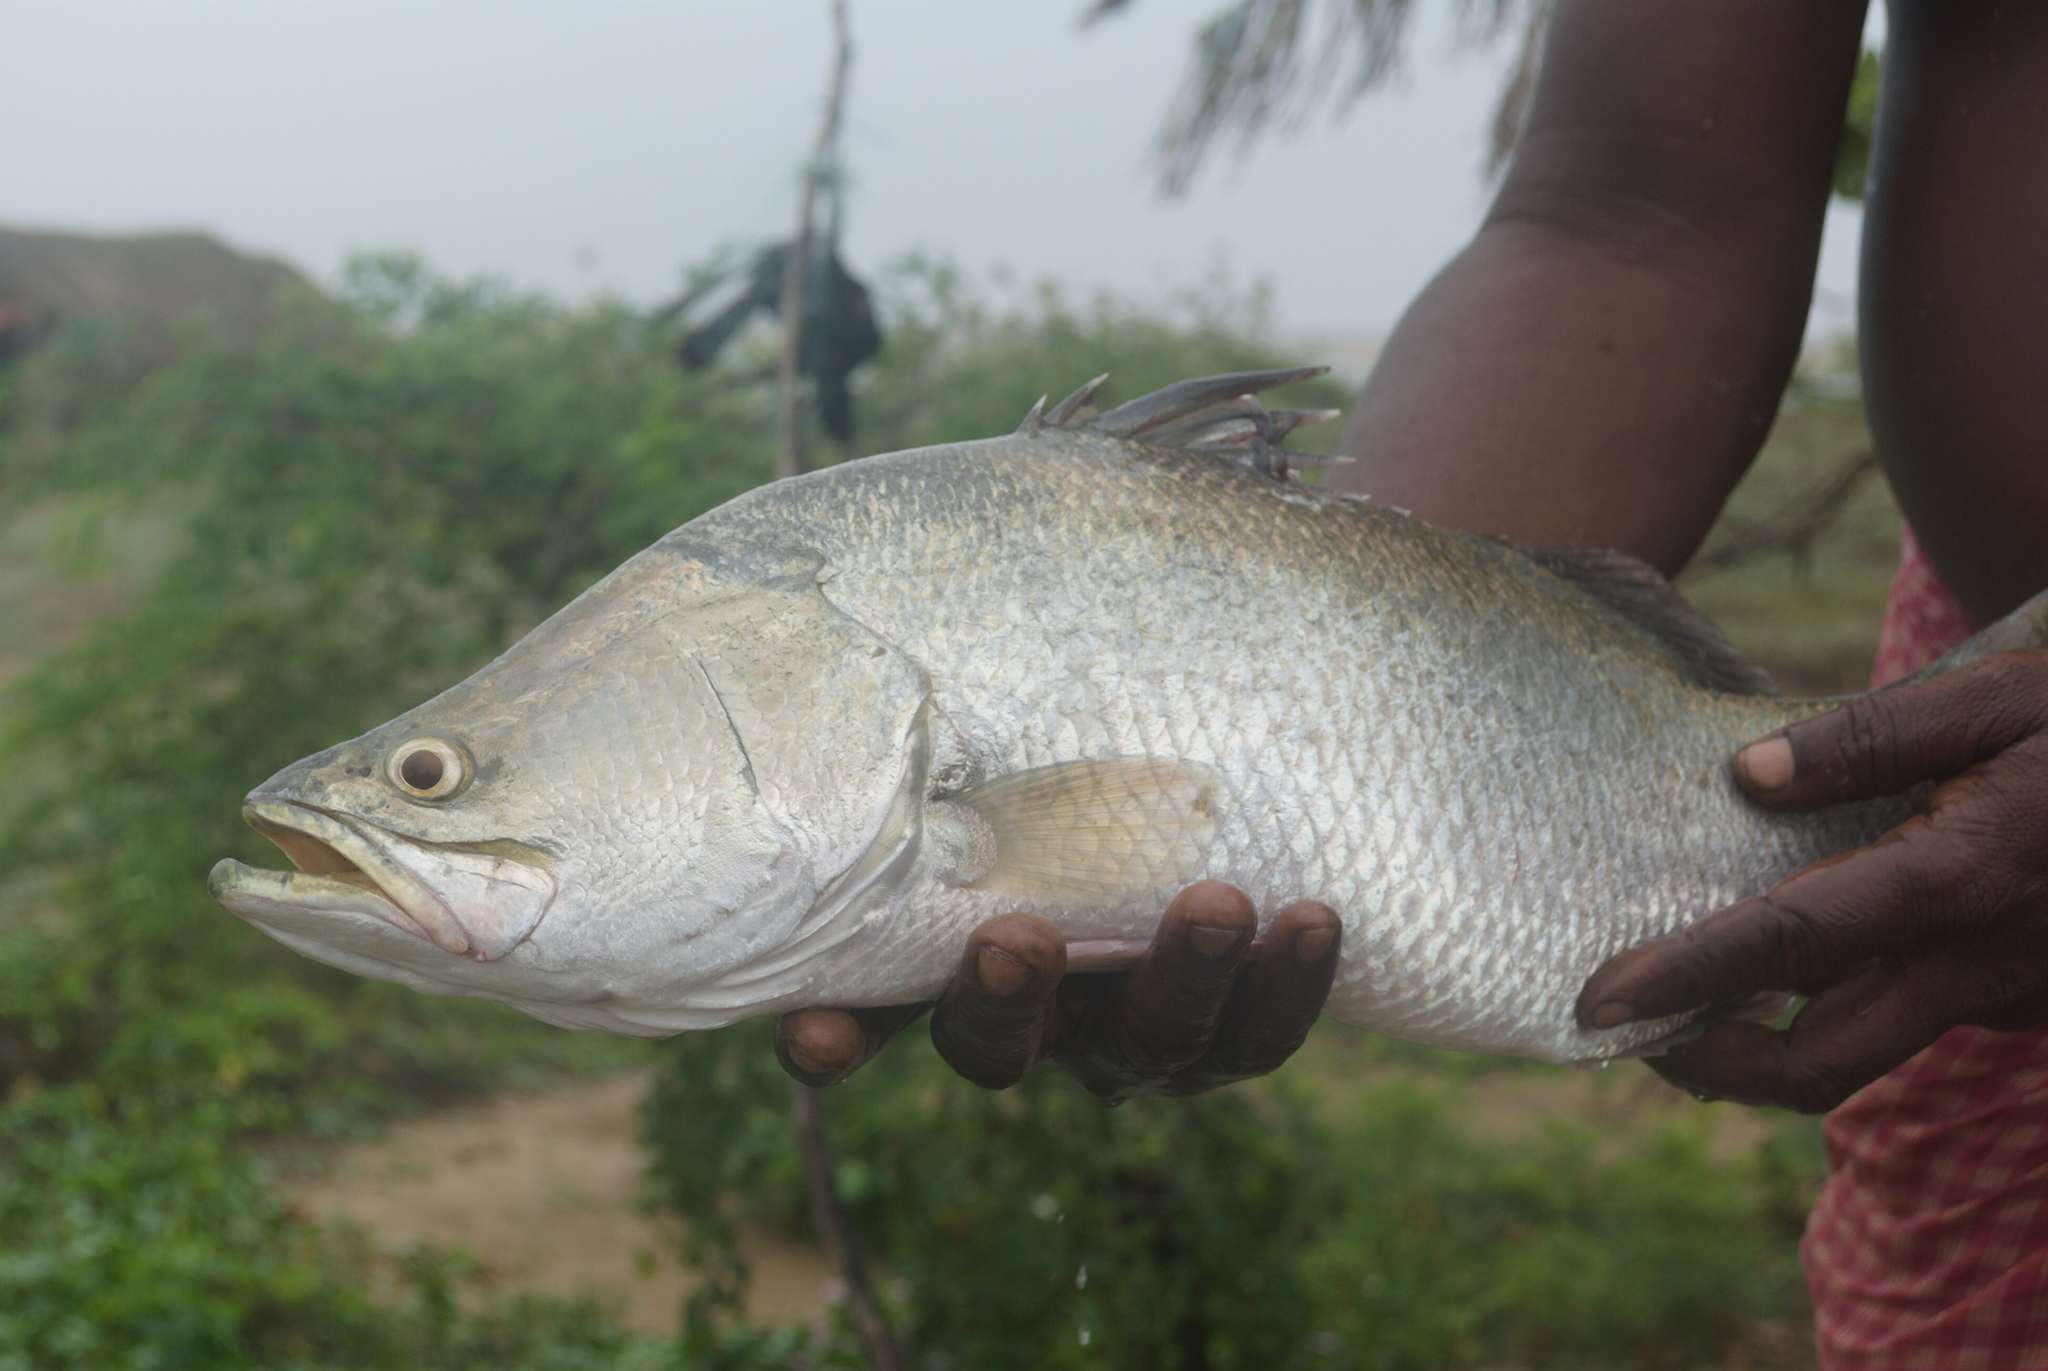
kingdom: Animalia
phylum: Chordata
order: Perciformes
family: Latidae
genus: Lates
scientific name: Lates calcarifer
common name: Barramundi
